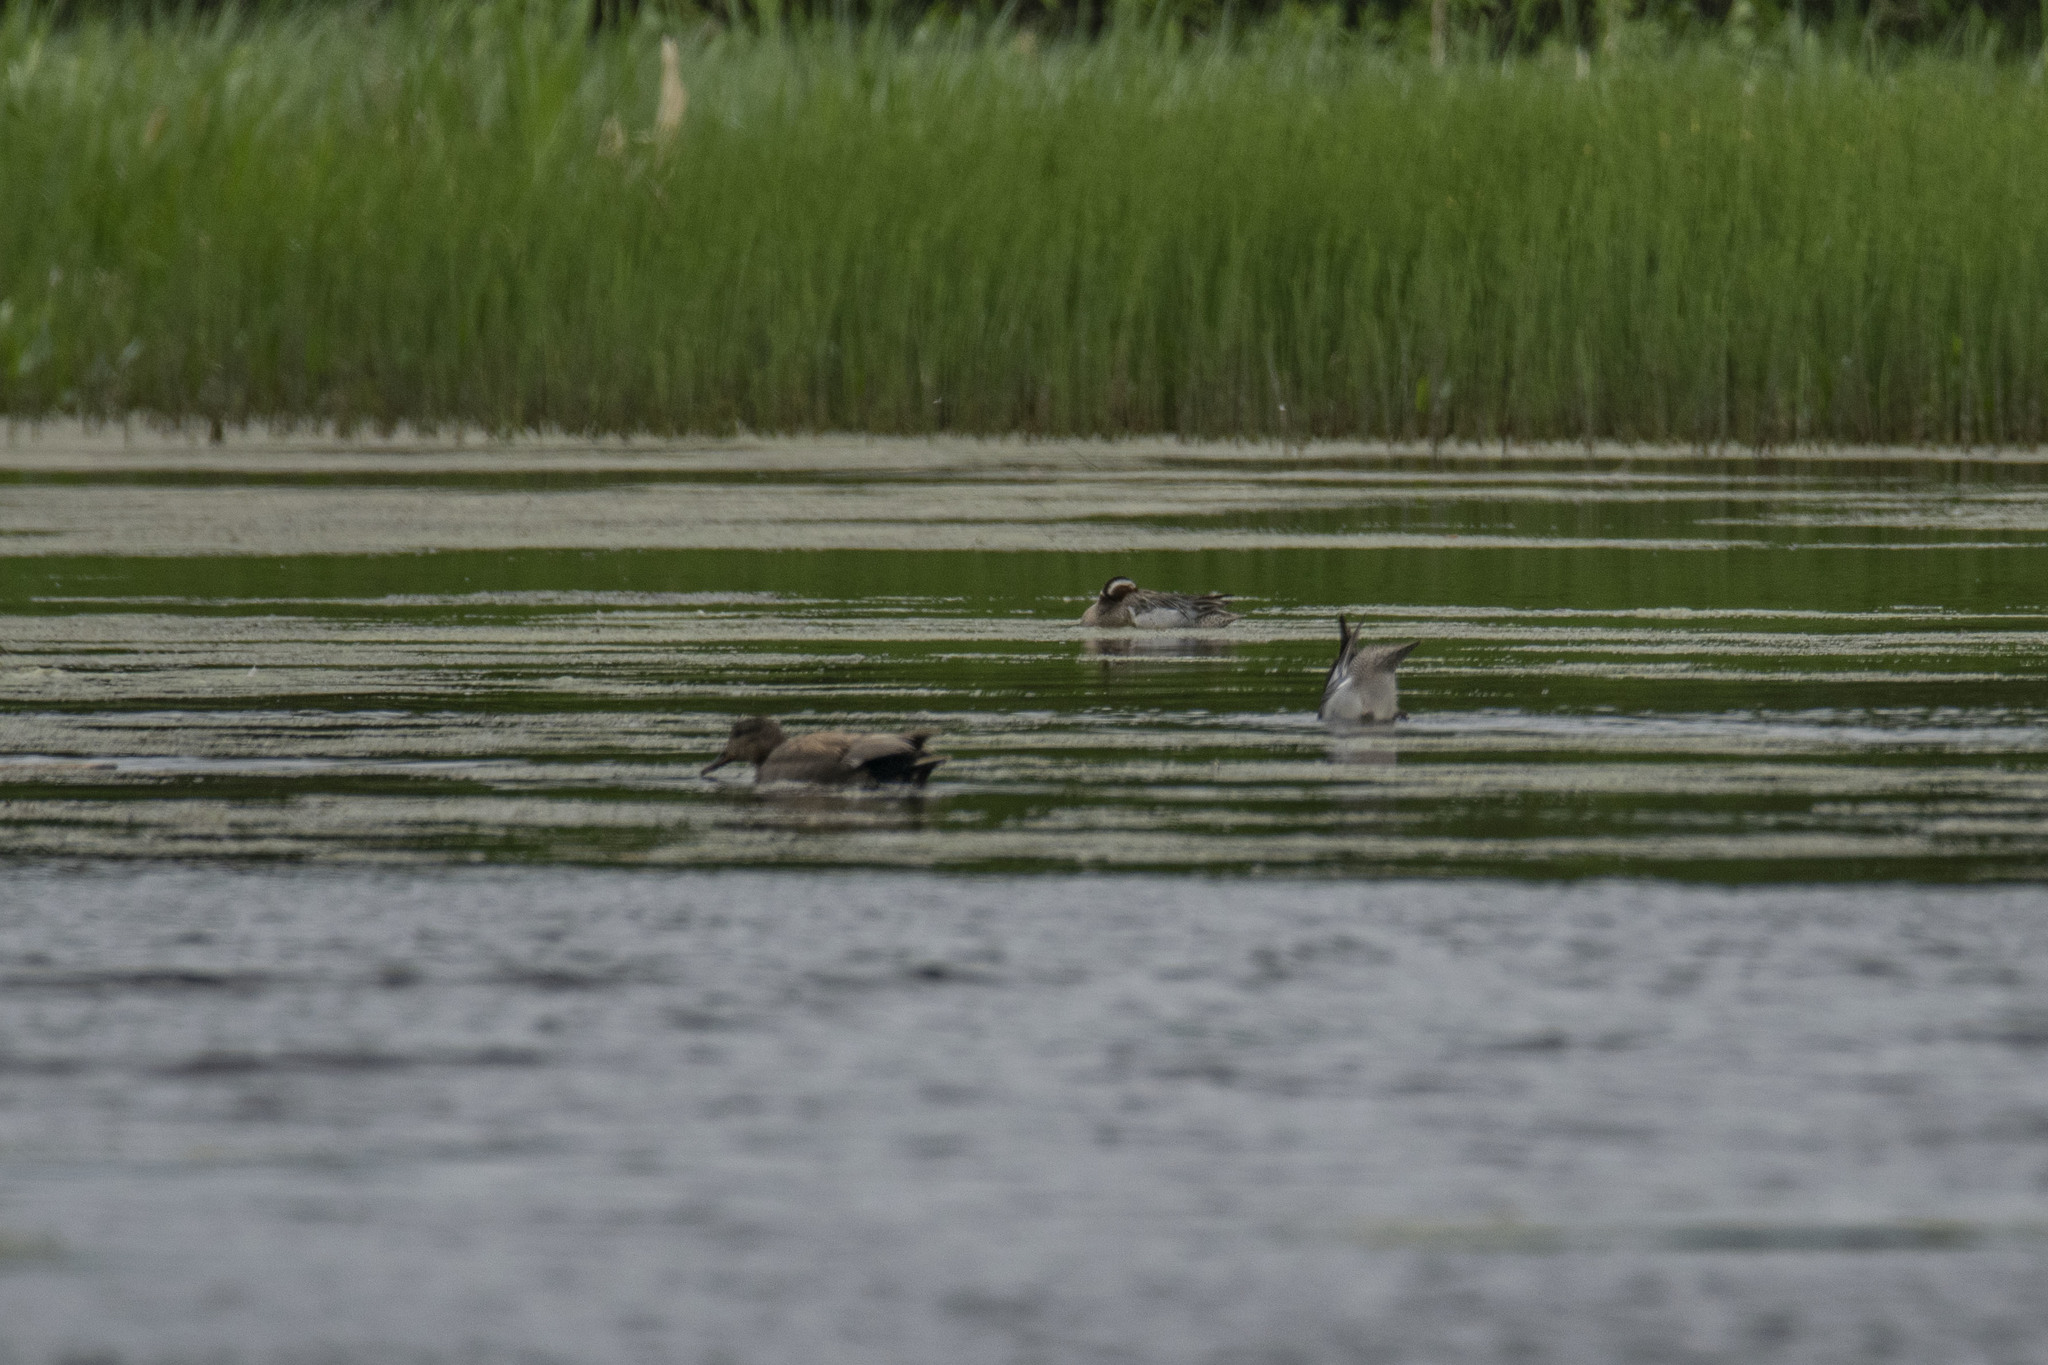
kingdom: Animalia
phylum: Chordata
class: Aves
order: Anseriformes
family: Anatidae
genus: Spatula
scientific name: Spatula querquedula
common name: Garganey
